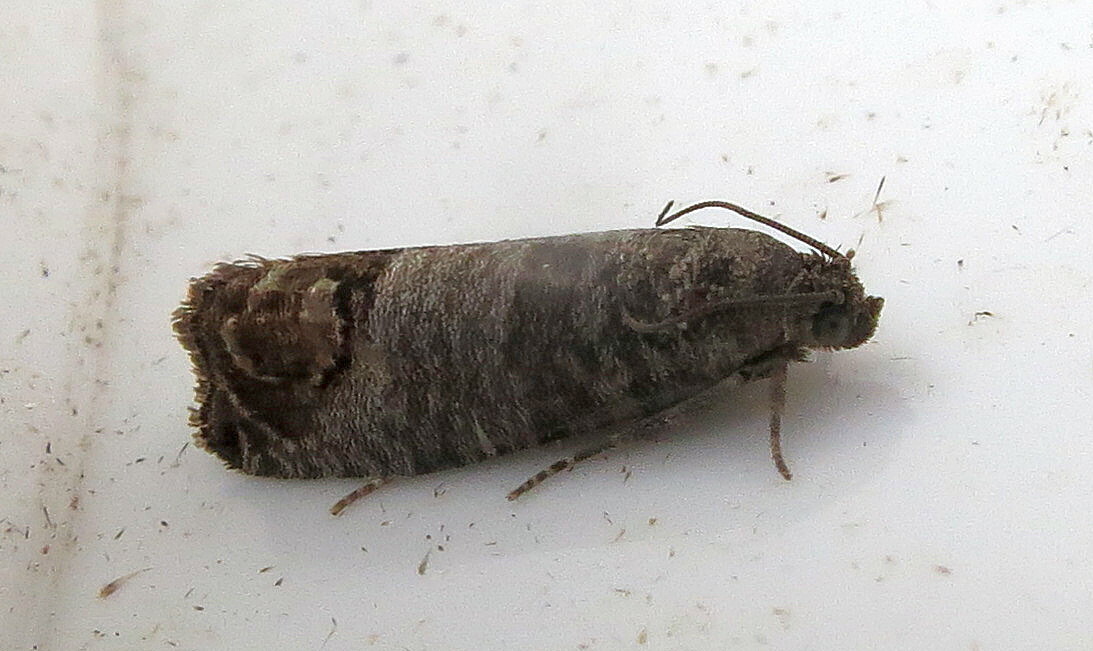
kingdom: Animalia
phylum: Arthropoda
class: Insecta
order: Lepidoptera
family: Tortricidae
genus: Cydia
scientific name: Cydia pomonella
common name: Codling moth
